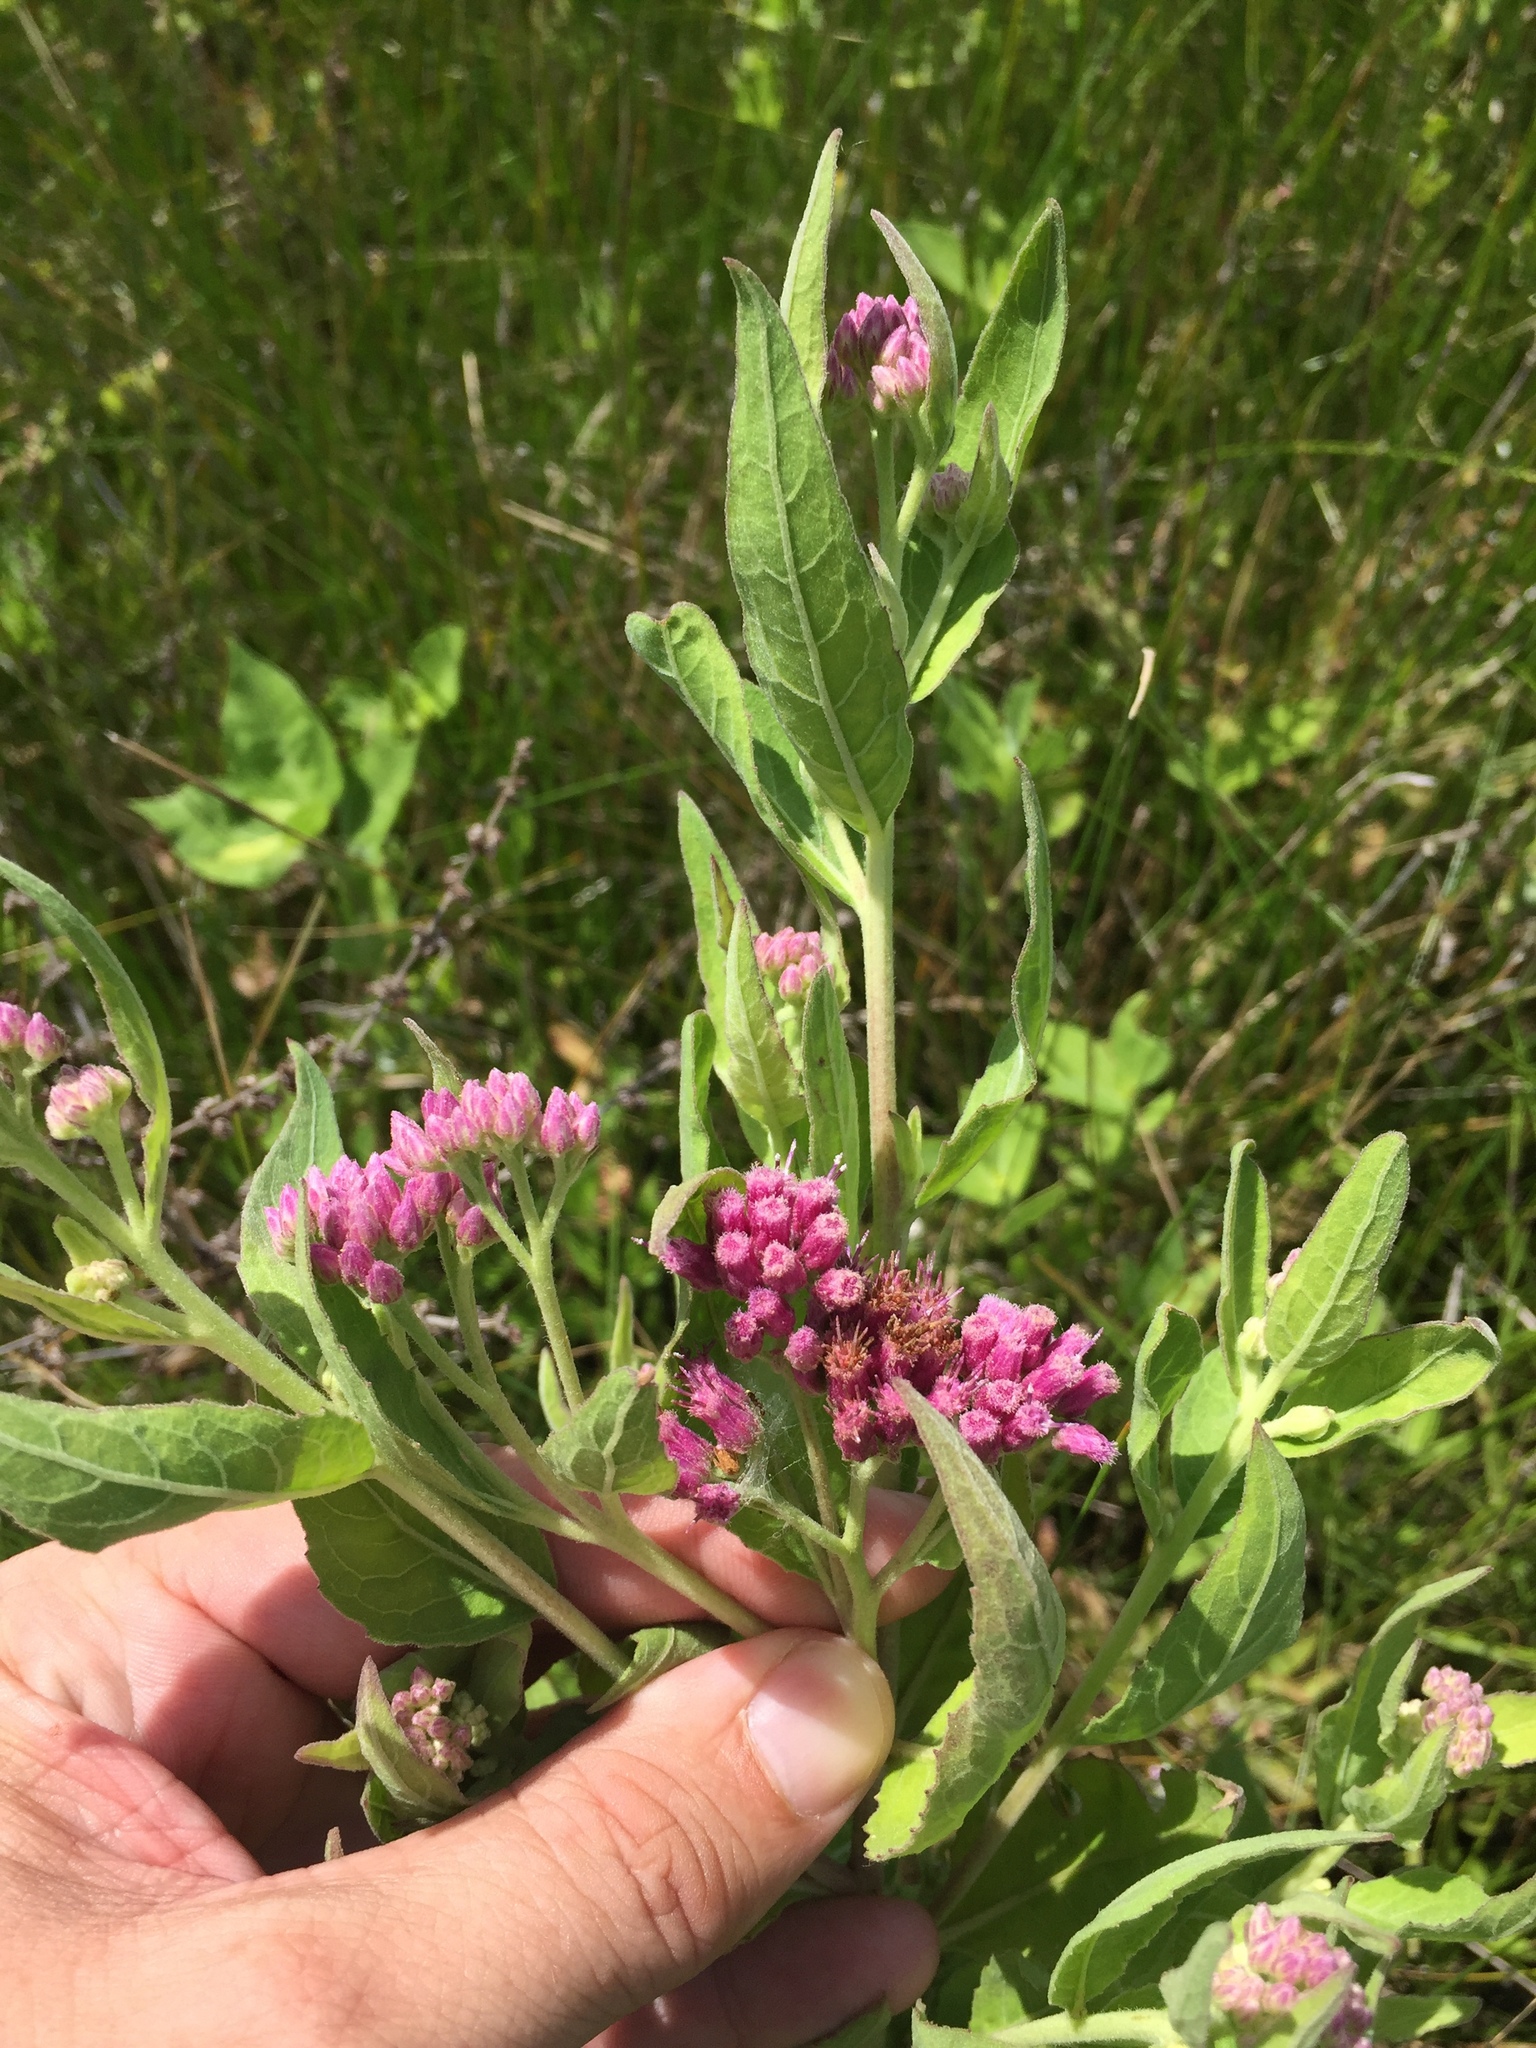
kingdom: Plantae
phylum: Tracheophyta
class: Magnoliopsida
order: Asterales
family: Asteraceae
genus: Pluchea
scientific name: Pluchea odorata
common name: Saltmarsh fleabane
